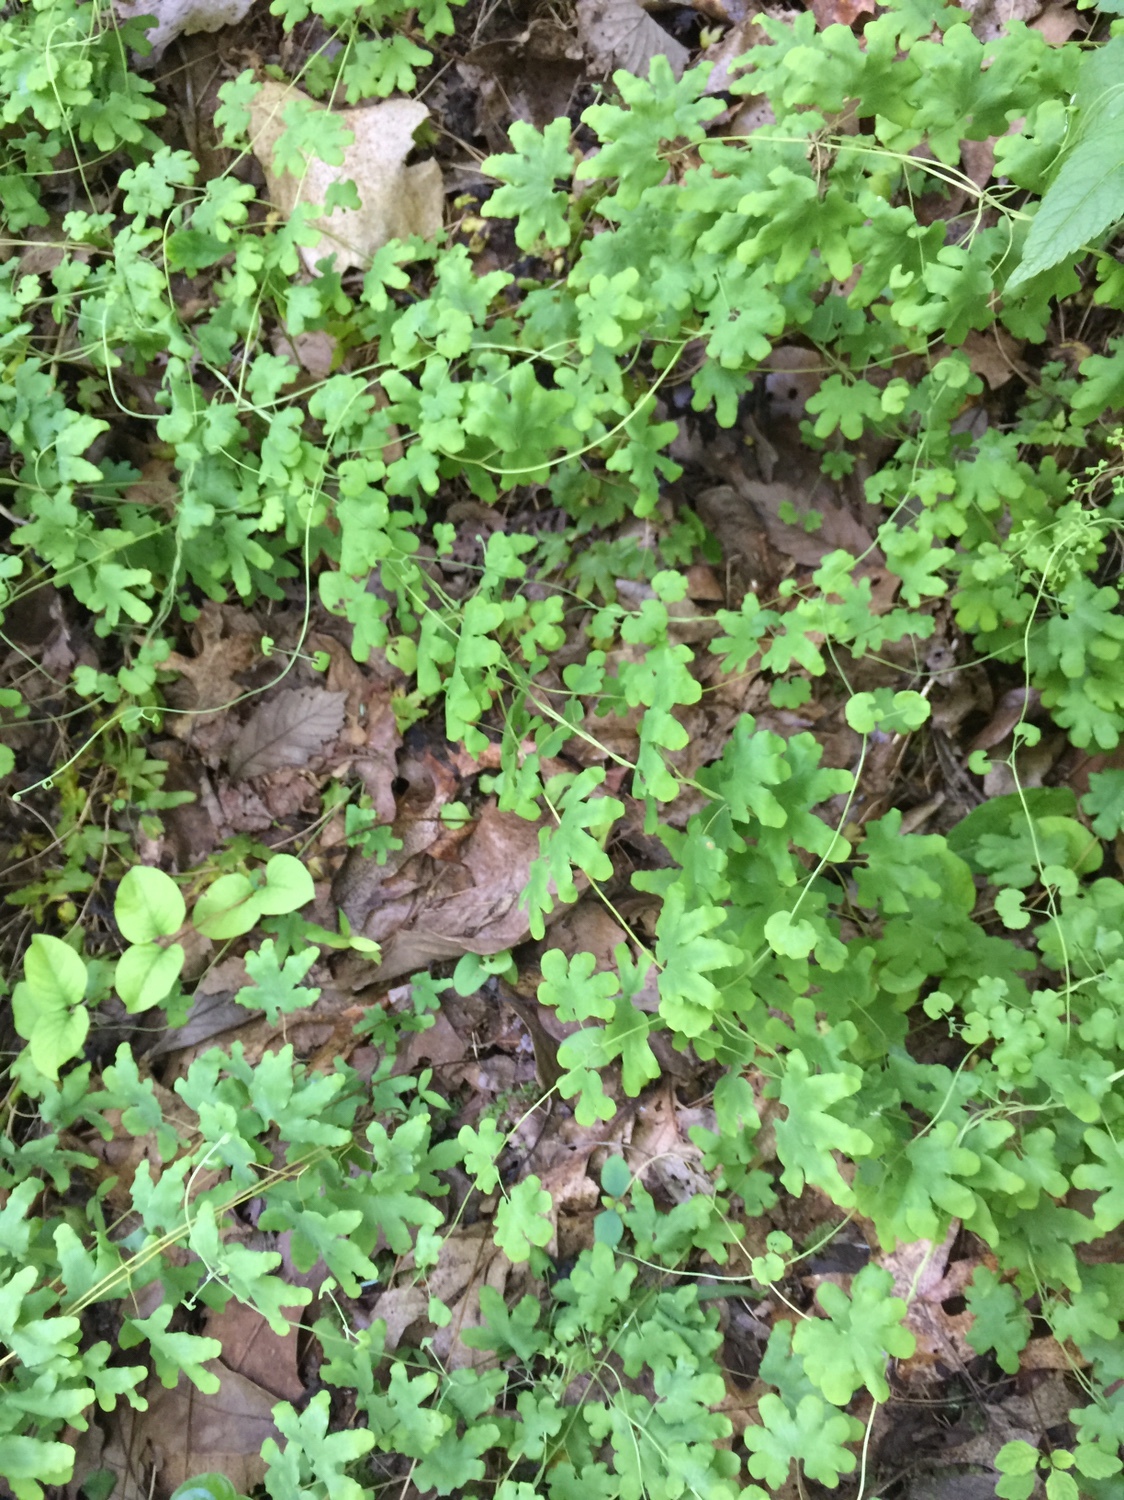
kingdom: Plantae
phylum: Tracheophyta
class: Polypodiopsida
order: Schizaeales
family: Lygodiaceae
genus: Lygodium
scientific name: Lygodium palmatum
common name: American climbing fern
